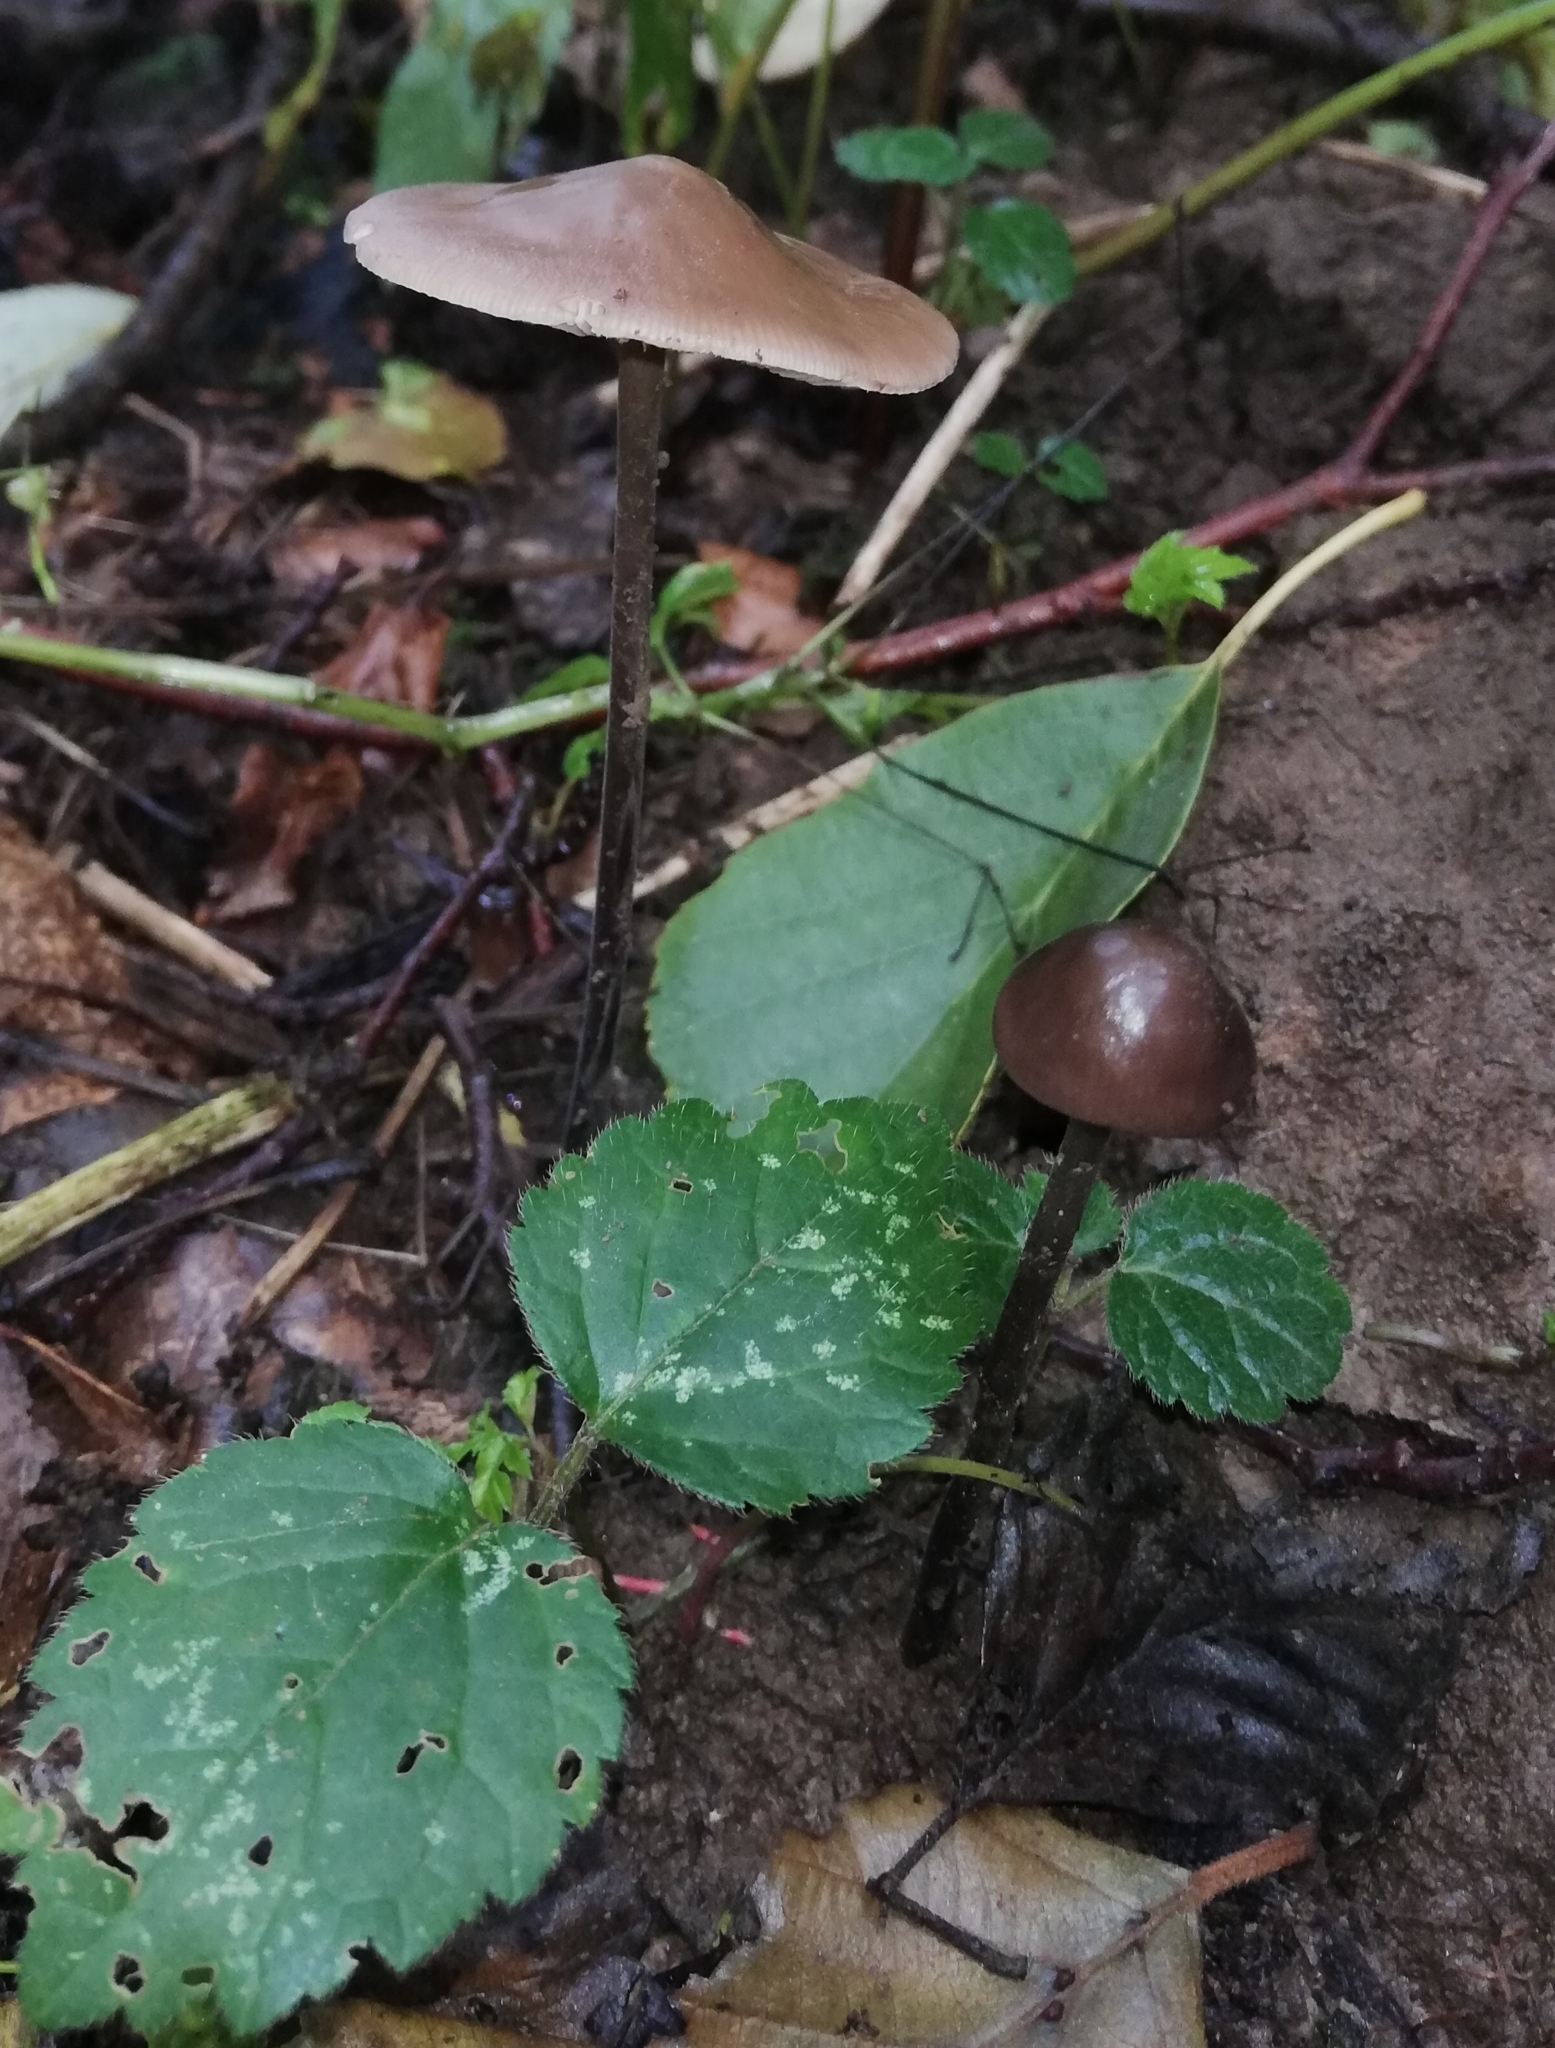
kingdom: Fungi
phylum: Basidiomycota
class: Agaricomycetes
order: Agaricales
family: Omphalotaceae
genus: Mycetinis
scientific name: Mycetinis alliaceus
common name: Garlic parachute
